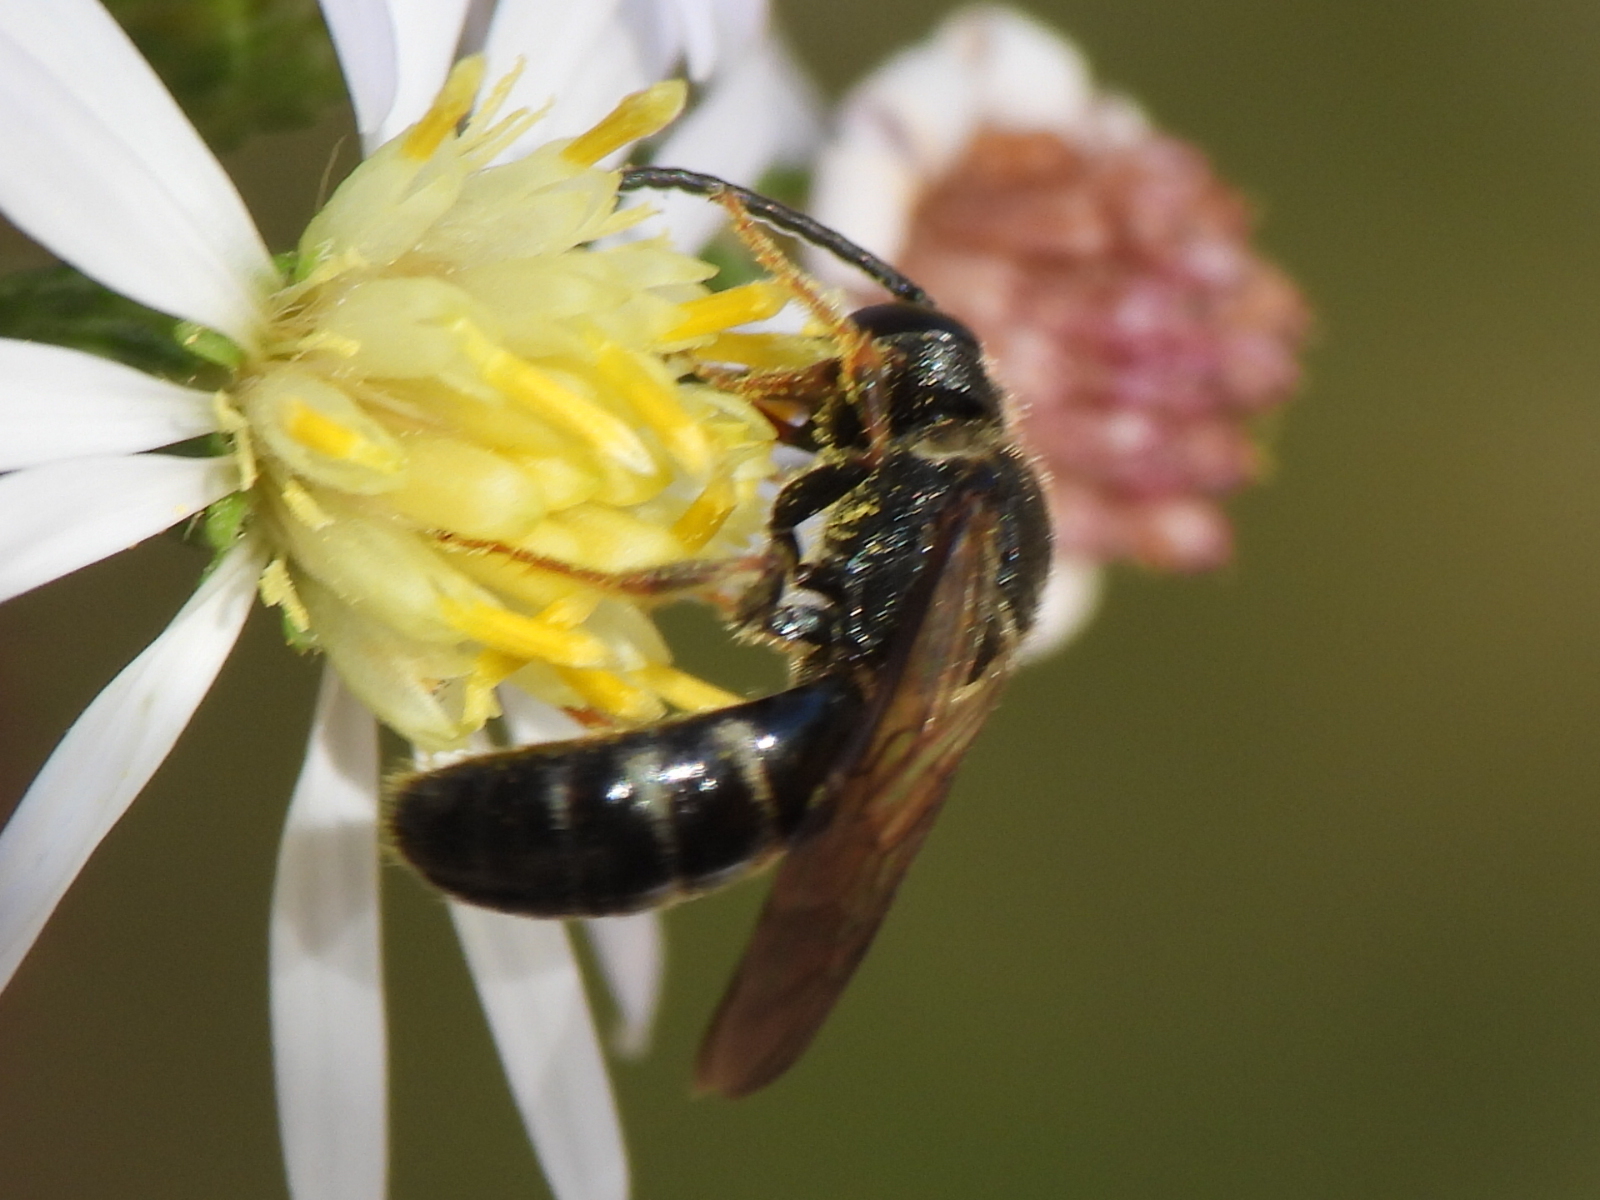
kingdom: Animalia
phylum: Arthropoda
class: Insecta
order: Hymenoptera
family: Halictidae
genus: Lasioglossum
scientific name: Lasioglossum fuscipenne
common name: Brown-winged sweat bee
